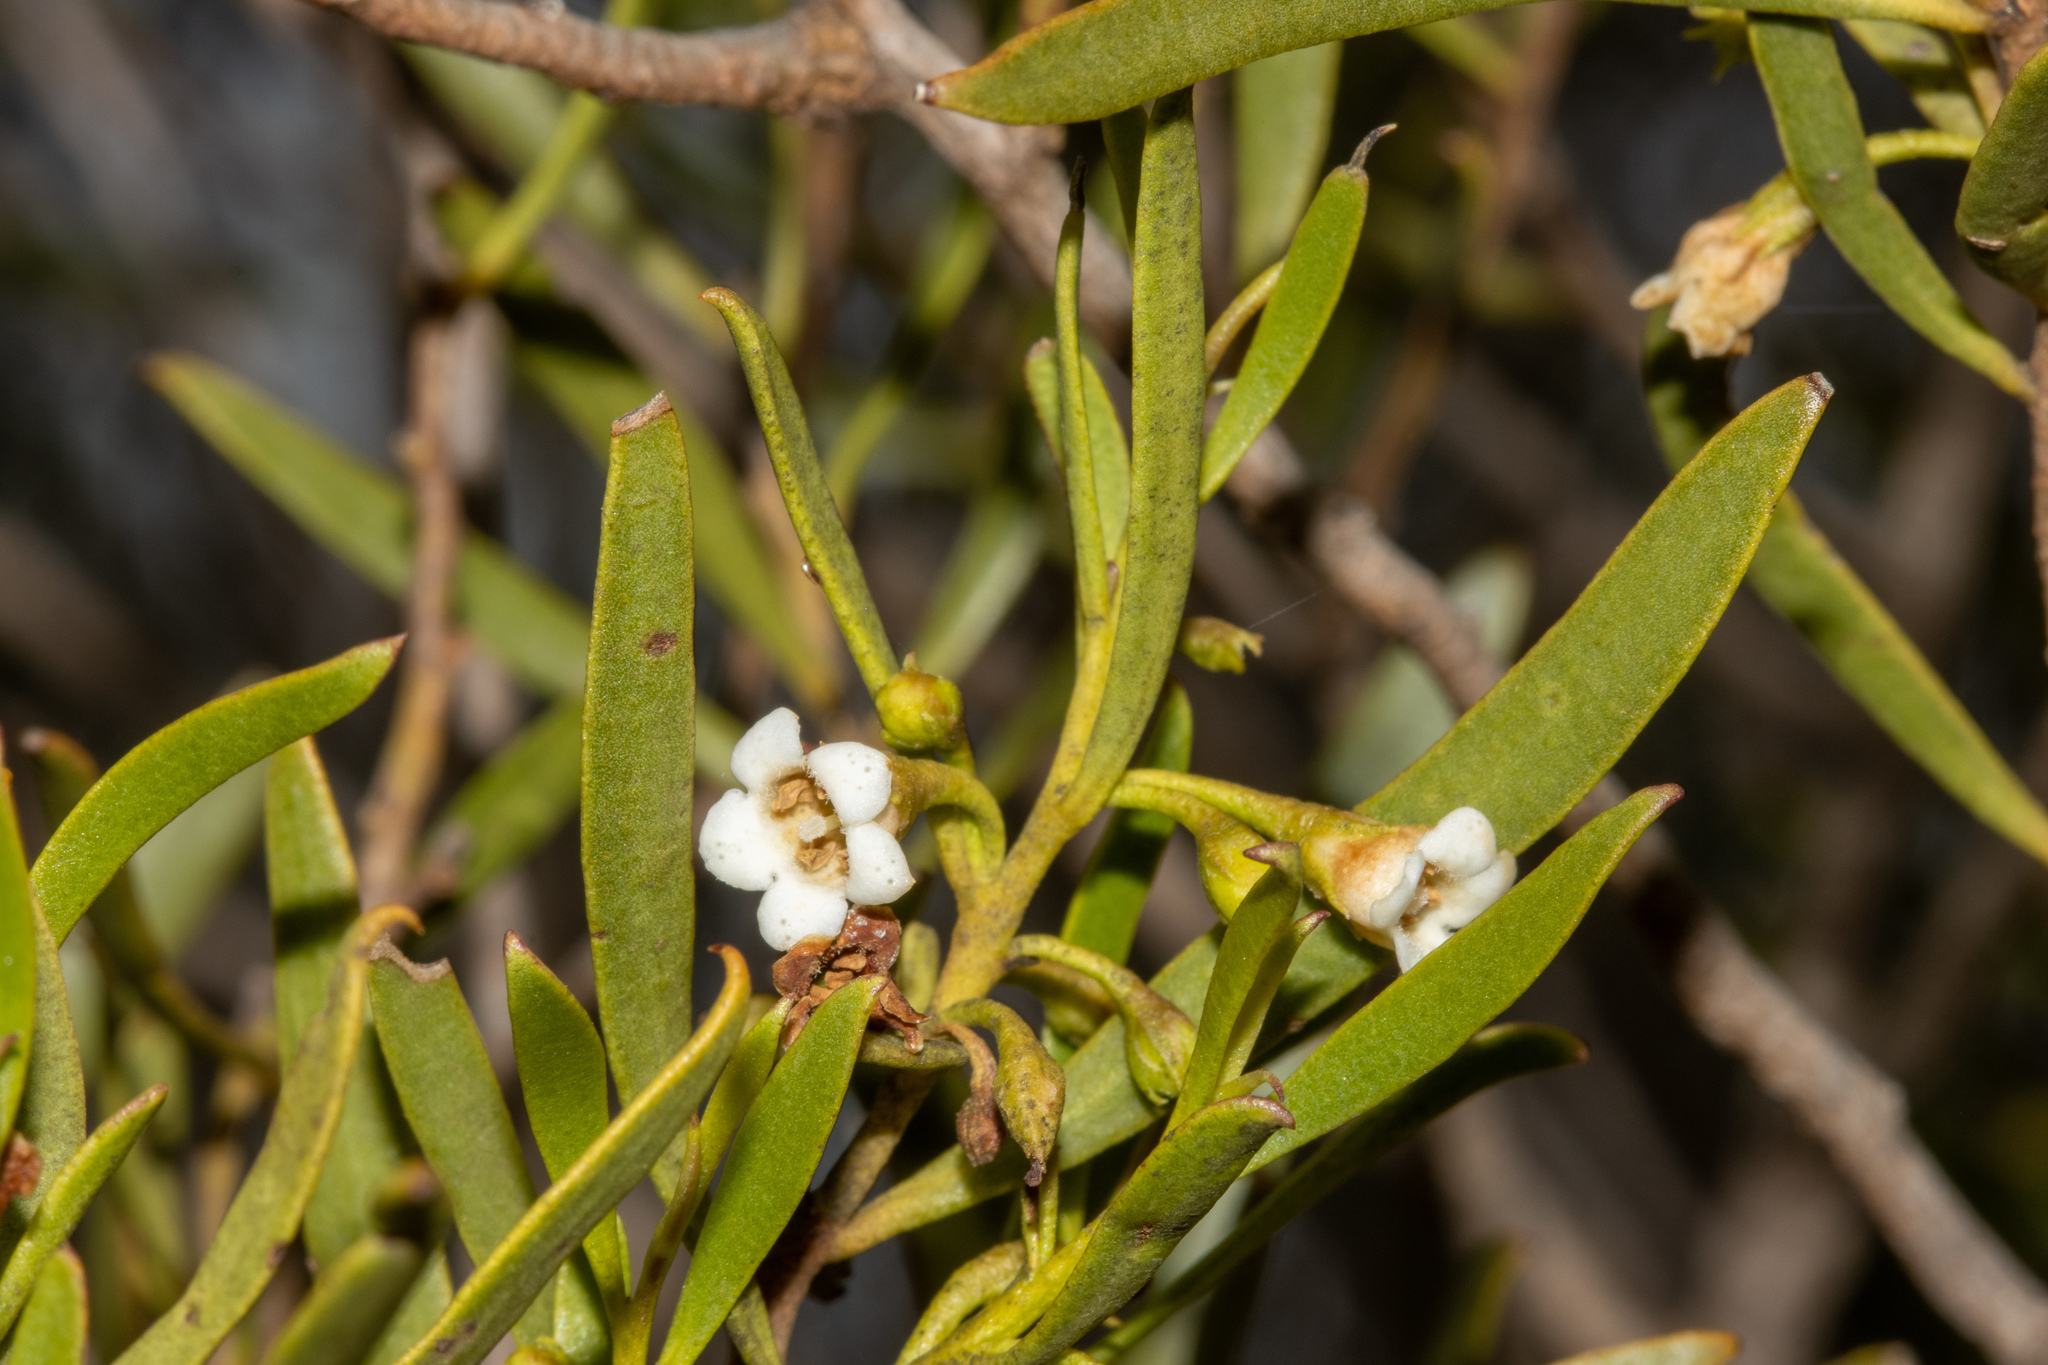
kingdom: Plantae
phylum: Tracheophyta
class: Magnoliopsida
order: Lamiales
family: Scrophulariaceae
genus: Eremophila
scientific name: Eremophila deserti
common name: Ellangowan-poisonbush
